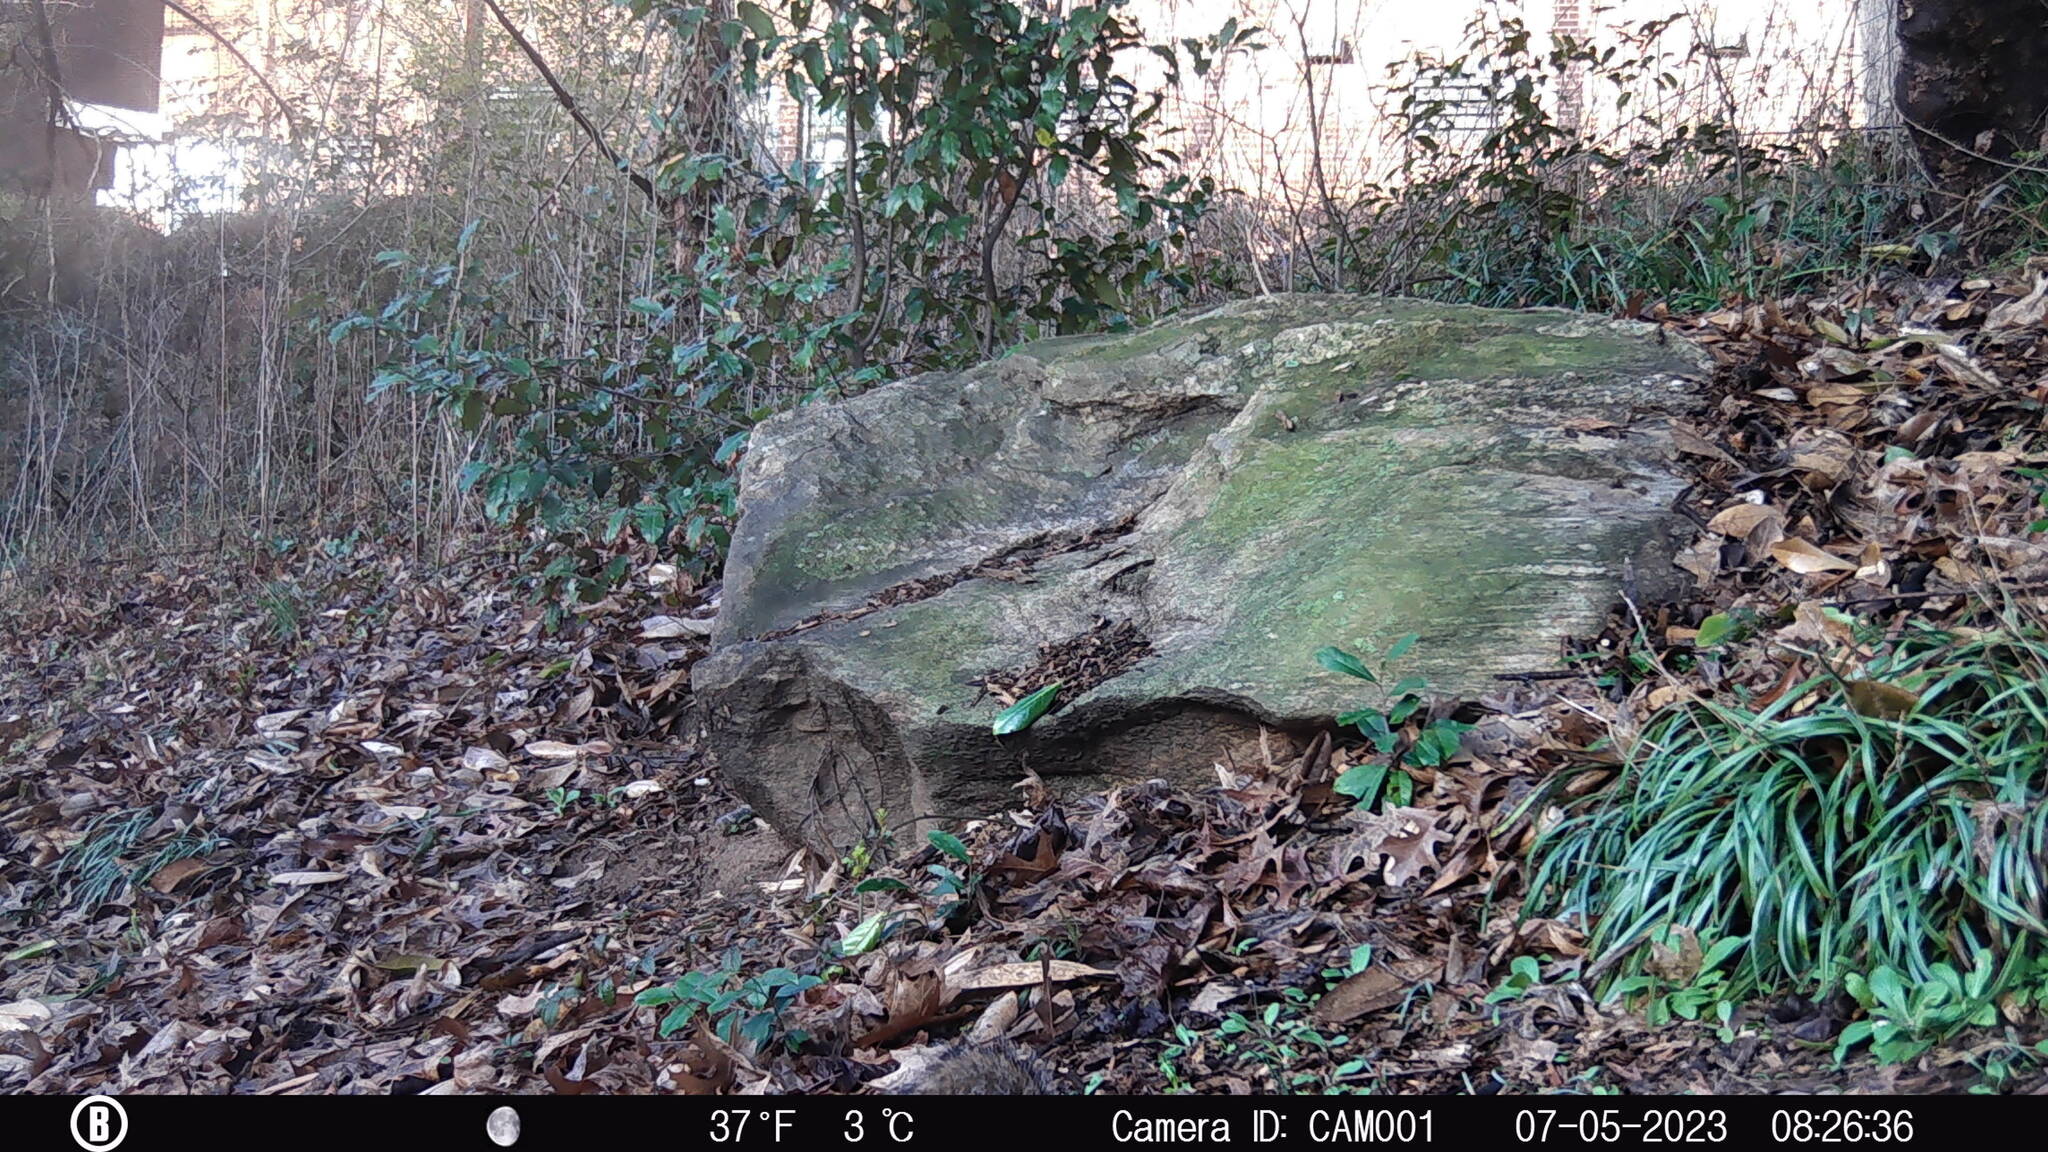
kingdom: Animalia
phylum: Chordata
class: Mammalia
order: Rodentia
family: Sciuridae
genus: Sciurus
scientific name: Sciurus carolinensis
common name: Eastern gray squirrel
